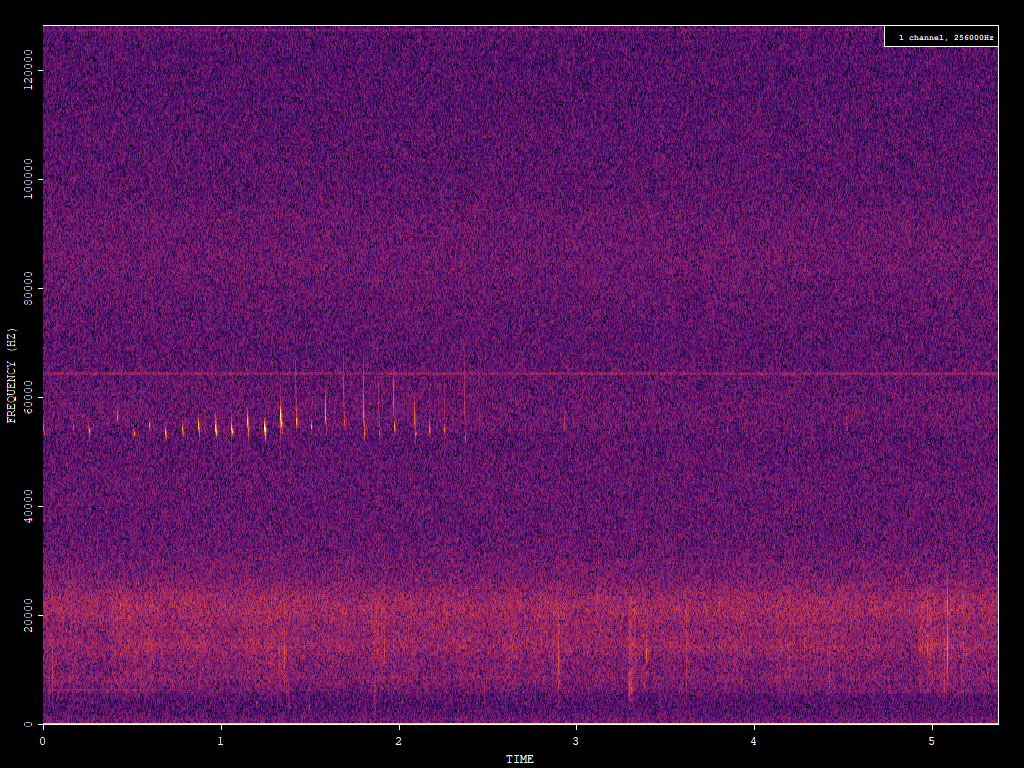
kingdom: Animalia
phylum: Chordata
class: Mammalia
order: Chiroptera
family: Vespertilionidae
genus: Pipistrellus
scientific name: Pipistrellus pygmaeus
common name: Soprano pipistrelle
